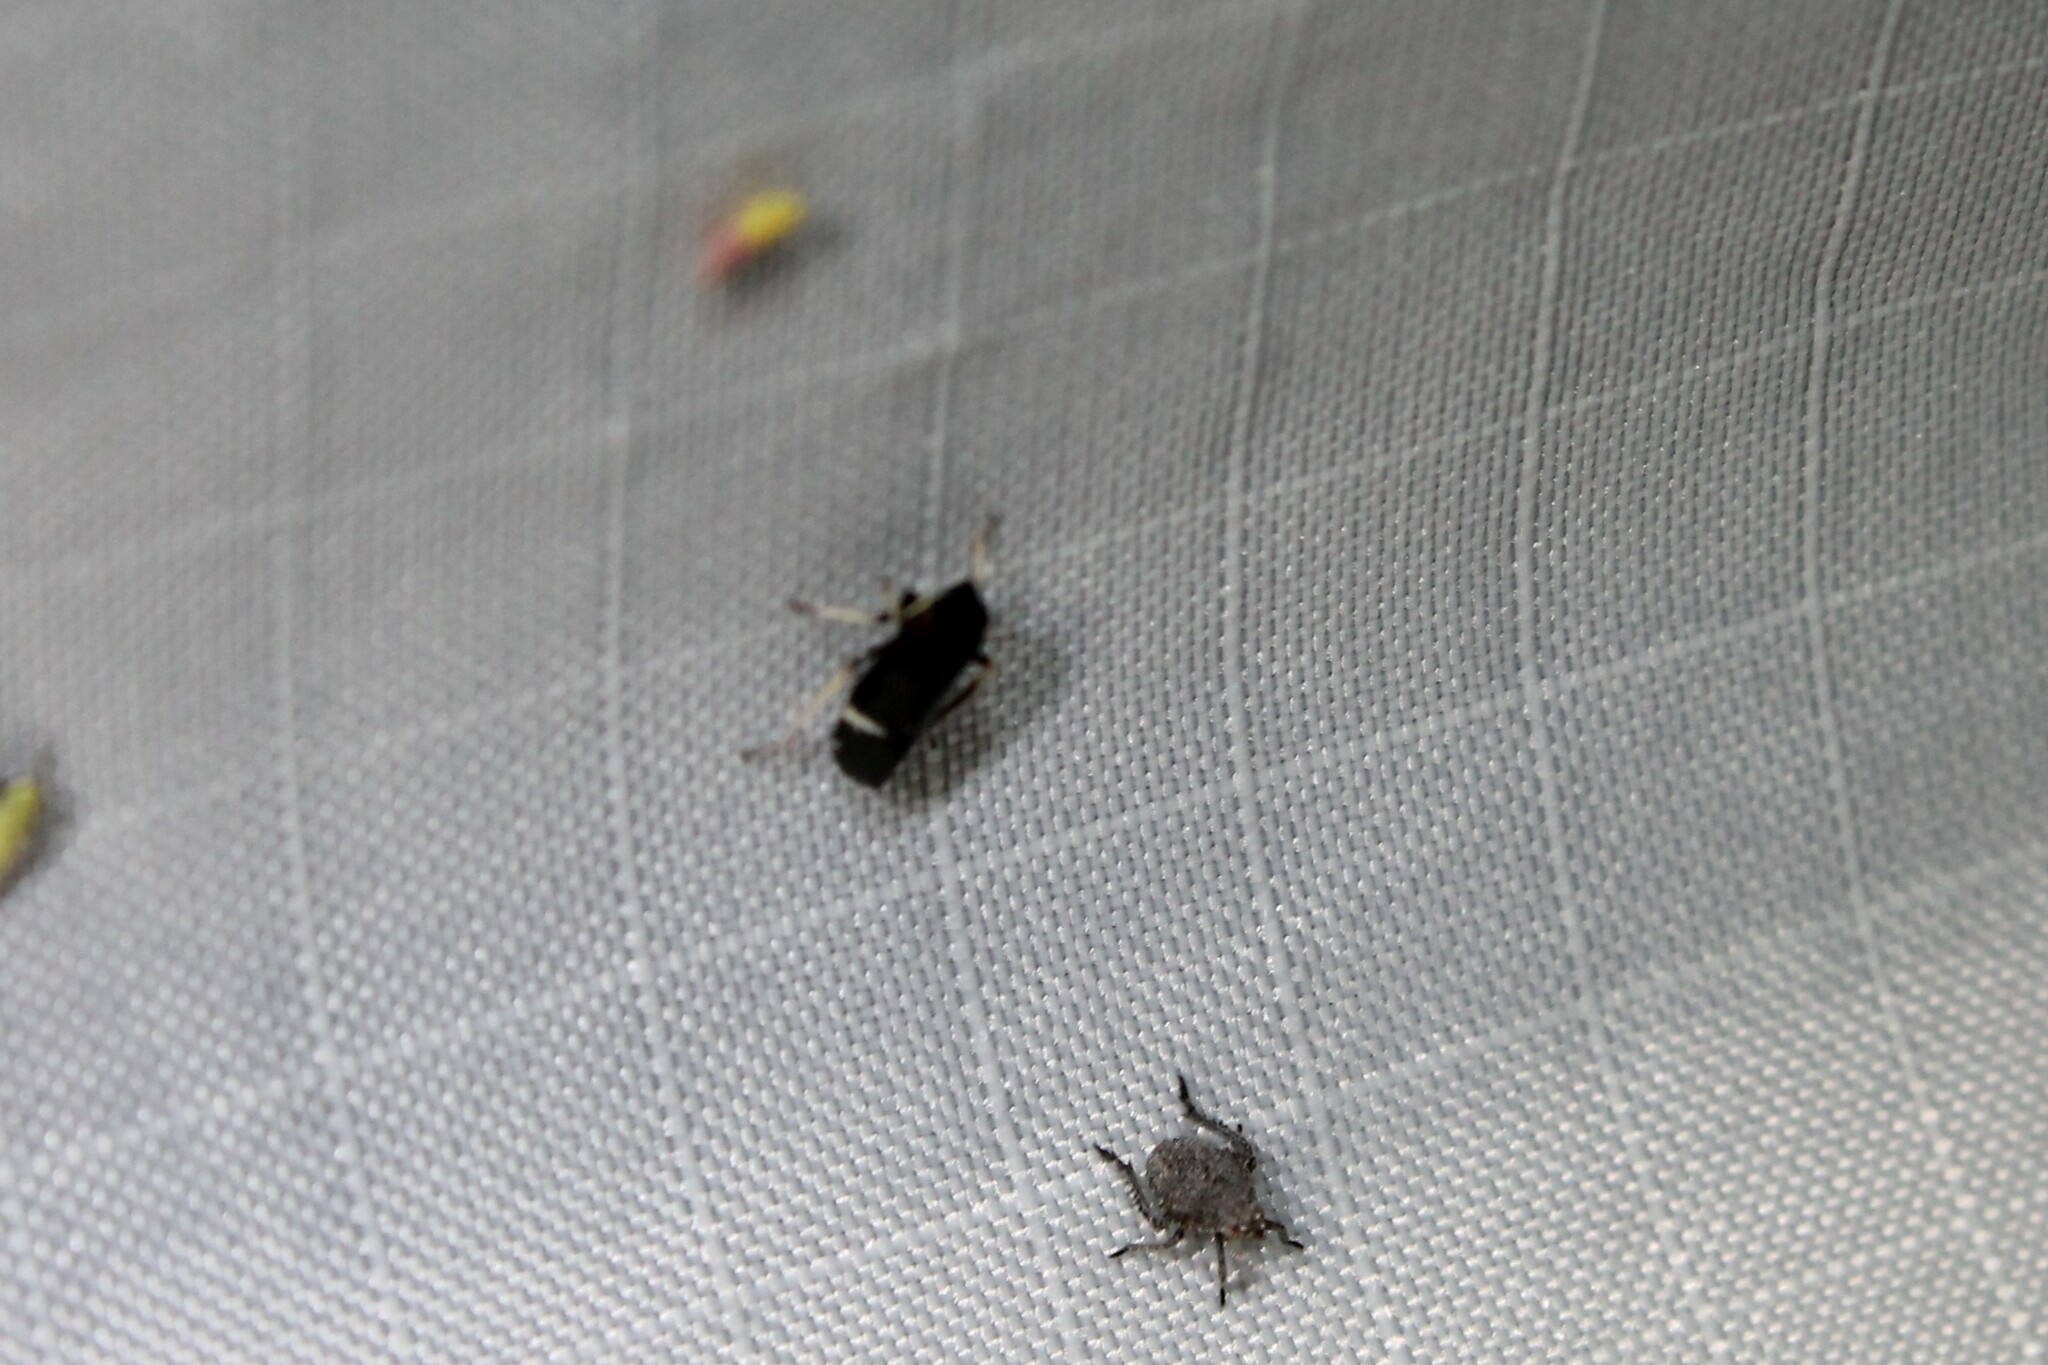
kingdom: Animalia
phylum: Arthropoda
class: Insecta
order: Hemiptera
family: Cicadellidae
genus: Cochlorhinus
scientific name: Cochlorhinus pluto
